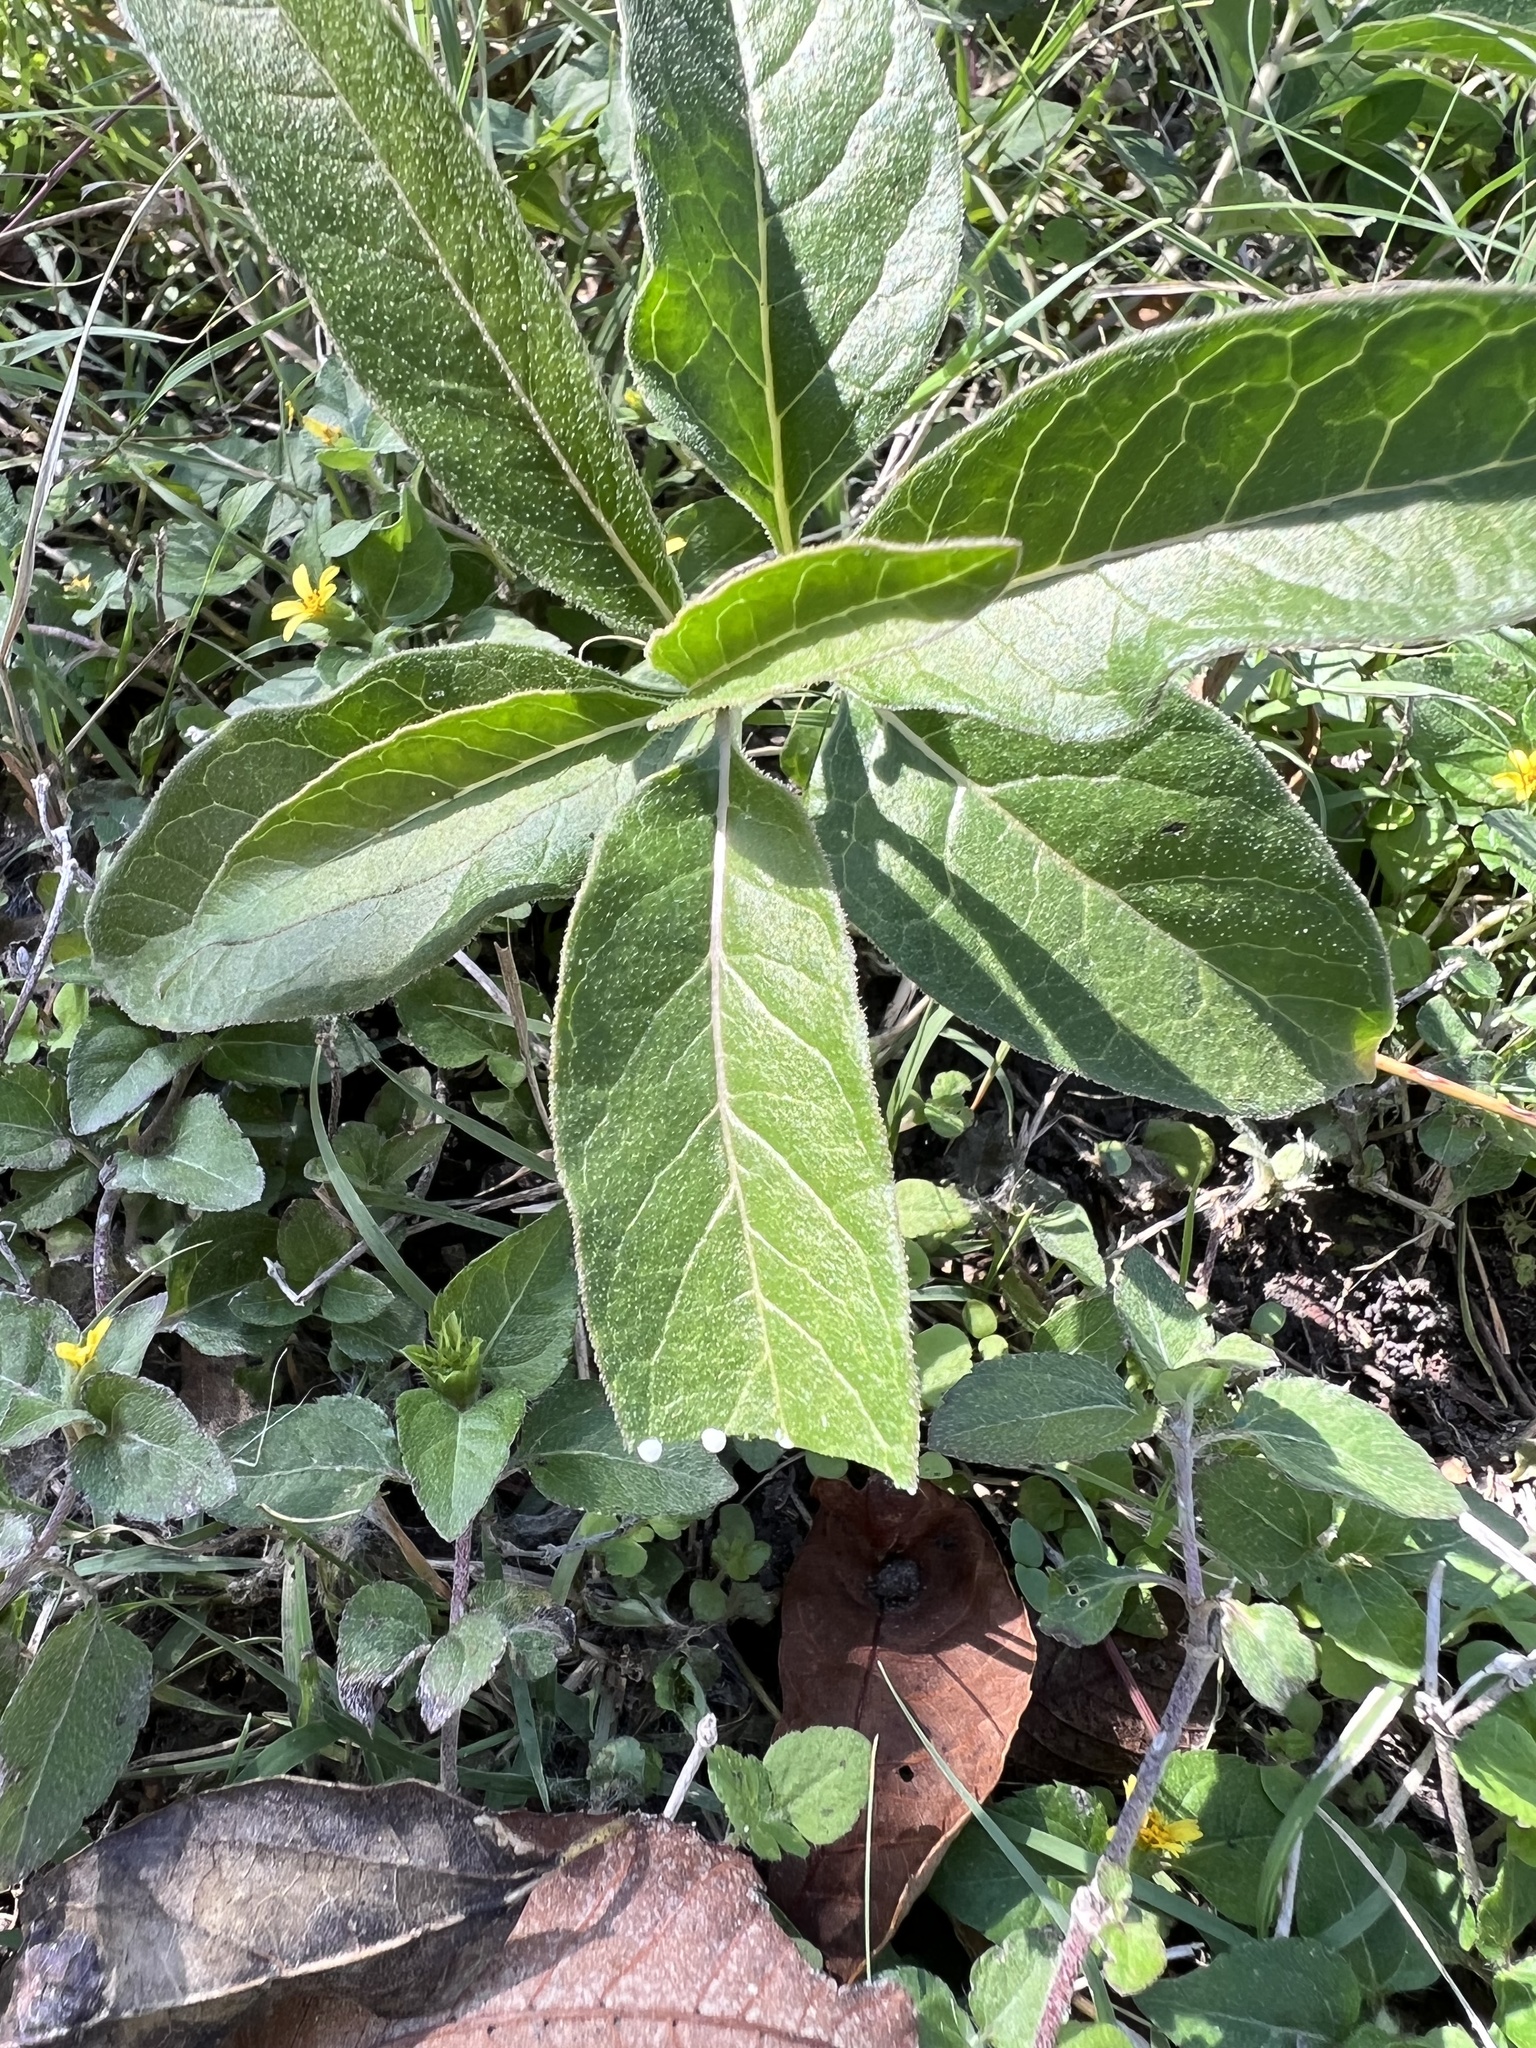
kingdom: Plantae
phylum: Tracheophyta
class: Magnoliopsida
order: Gentianales
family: Apocynaceae
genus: Asclepias
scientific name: Asclepias oenotheroides
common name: Zizotes milkweed
